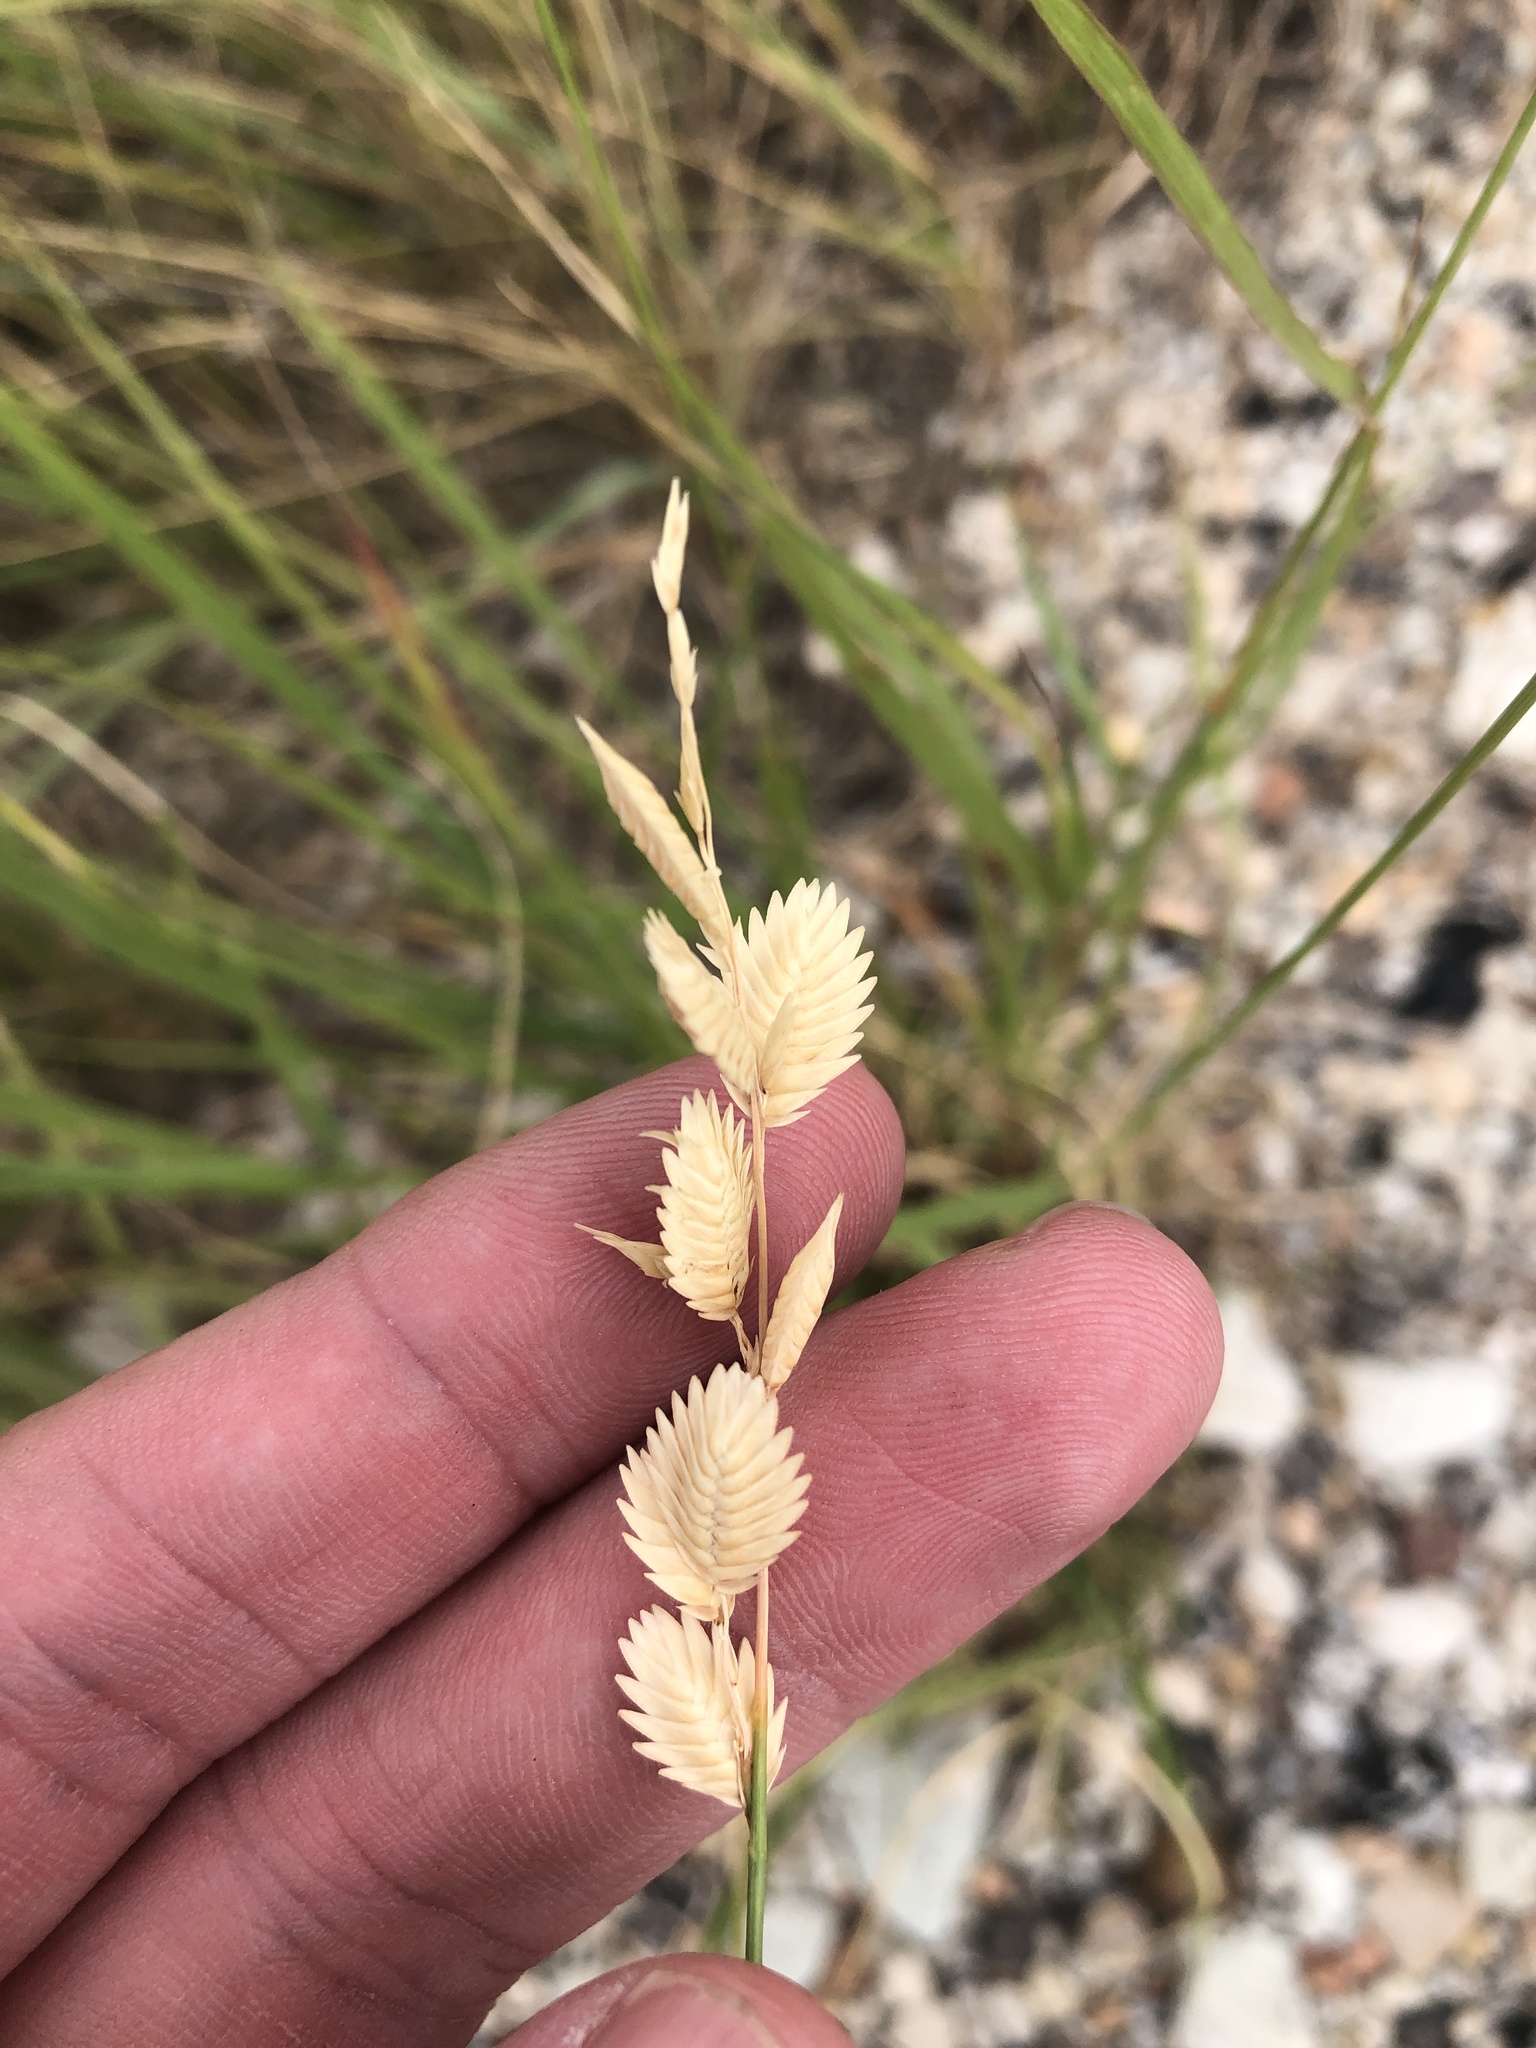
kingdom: Plantae
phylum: Tracheophyta
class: Liliopsida
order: Poales
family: Poaceae
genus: Eragrostis
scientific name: Eragrostis superba
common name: Wilman lovegrass
